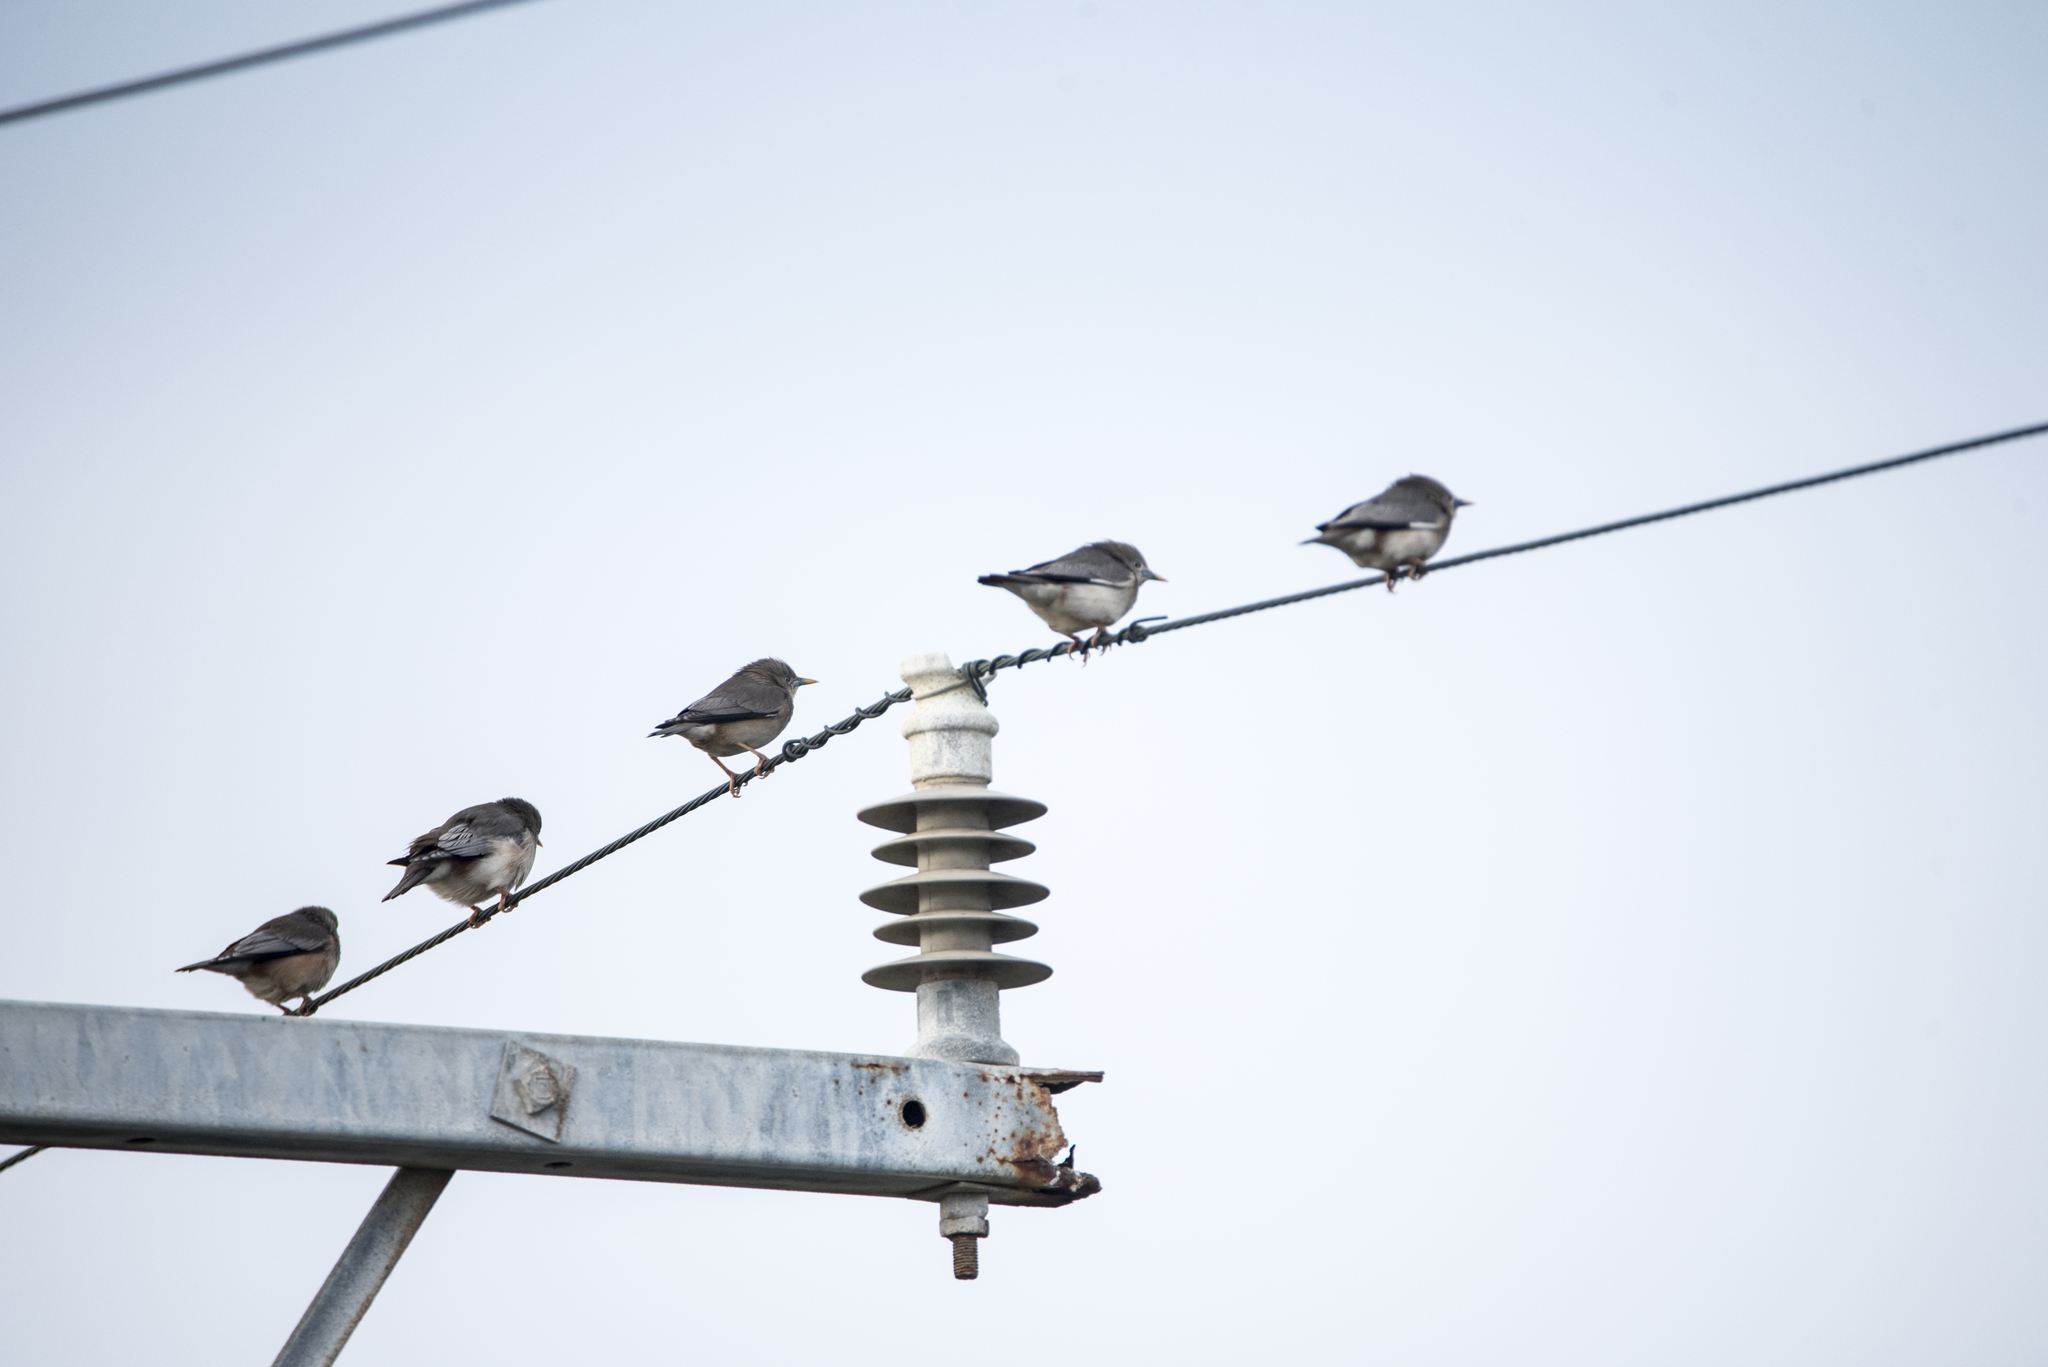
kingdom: Animalia
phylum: Chordata
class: Aves
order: Passeriformes
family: Sturnidae
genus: Sturnia
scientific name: Sturnia malabarica
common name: Chestnut-tailed starling
